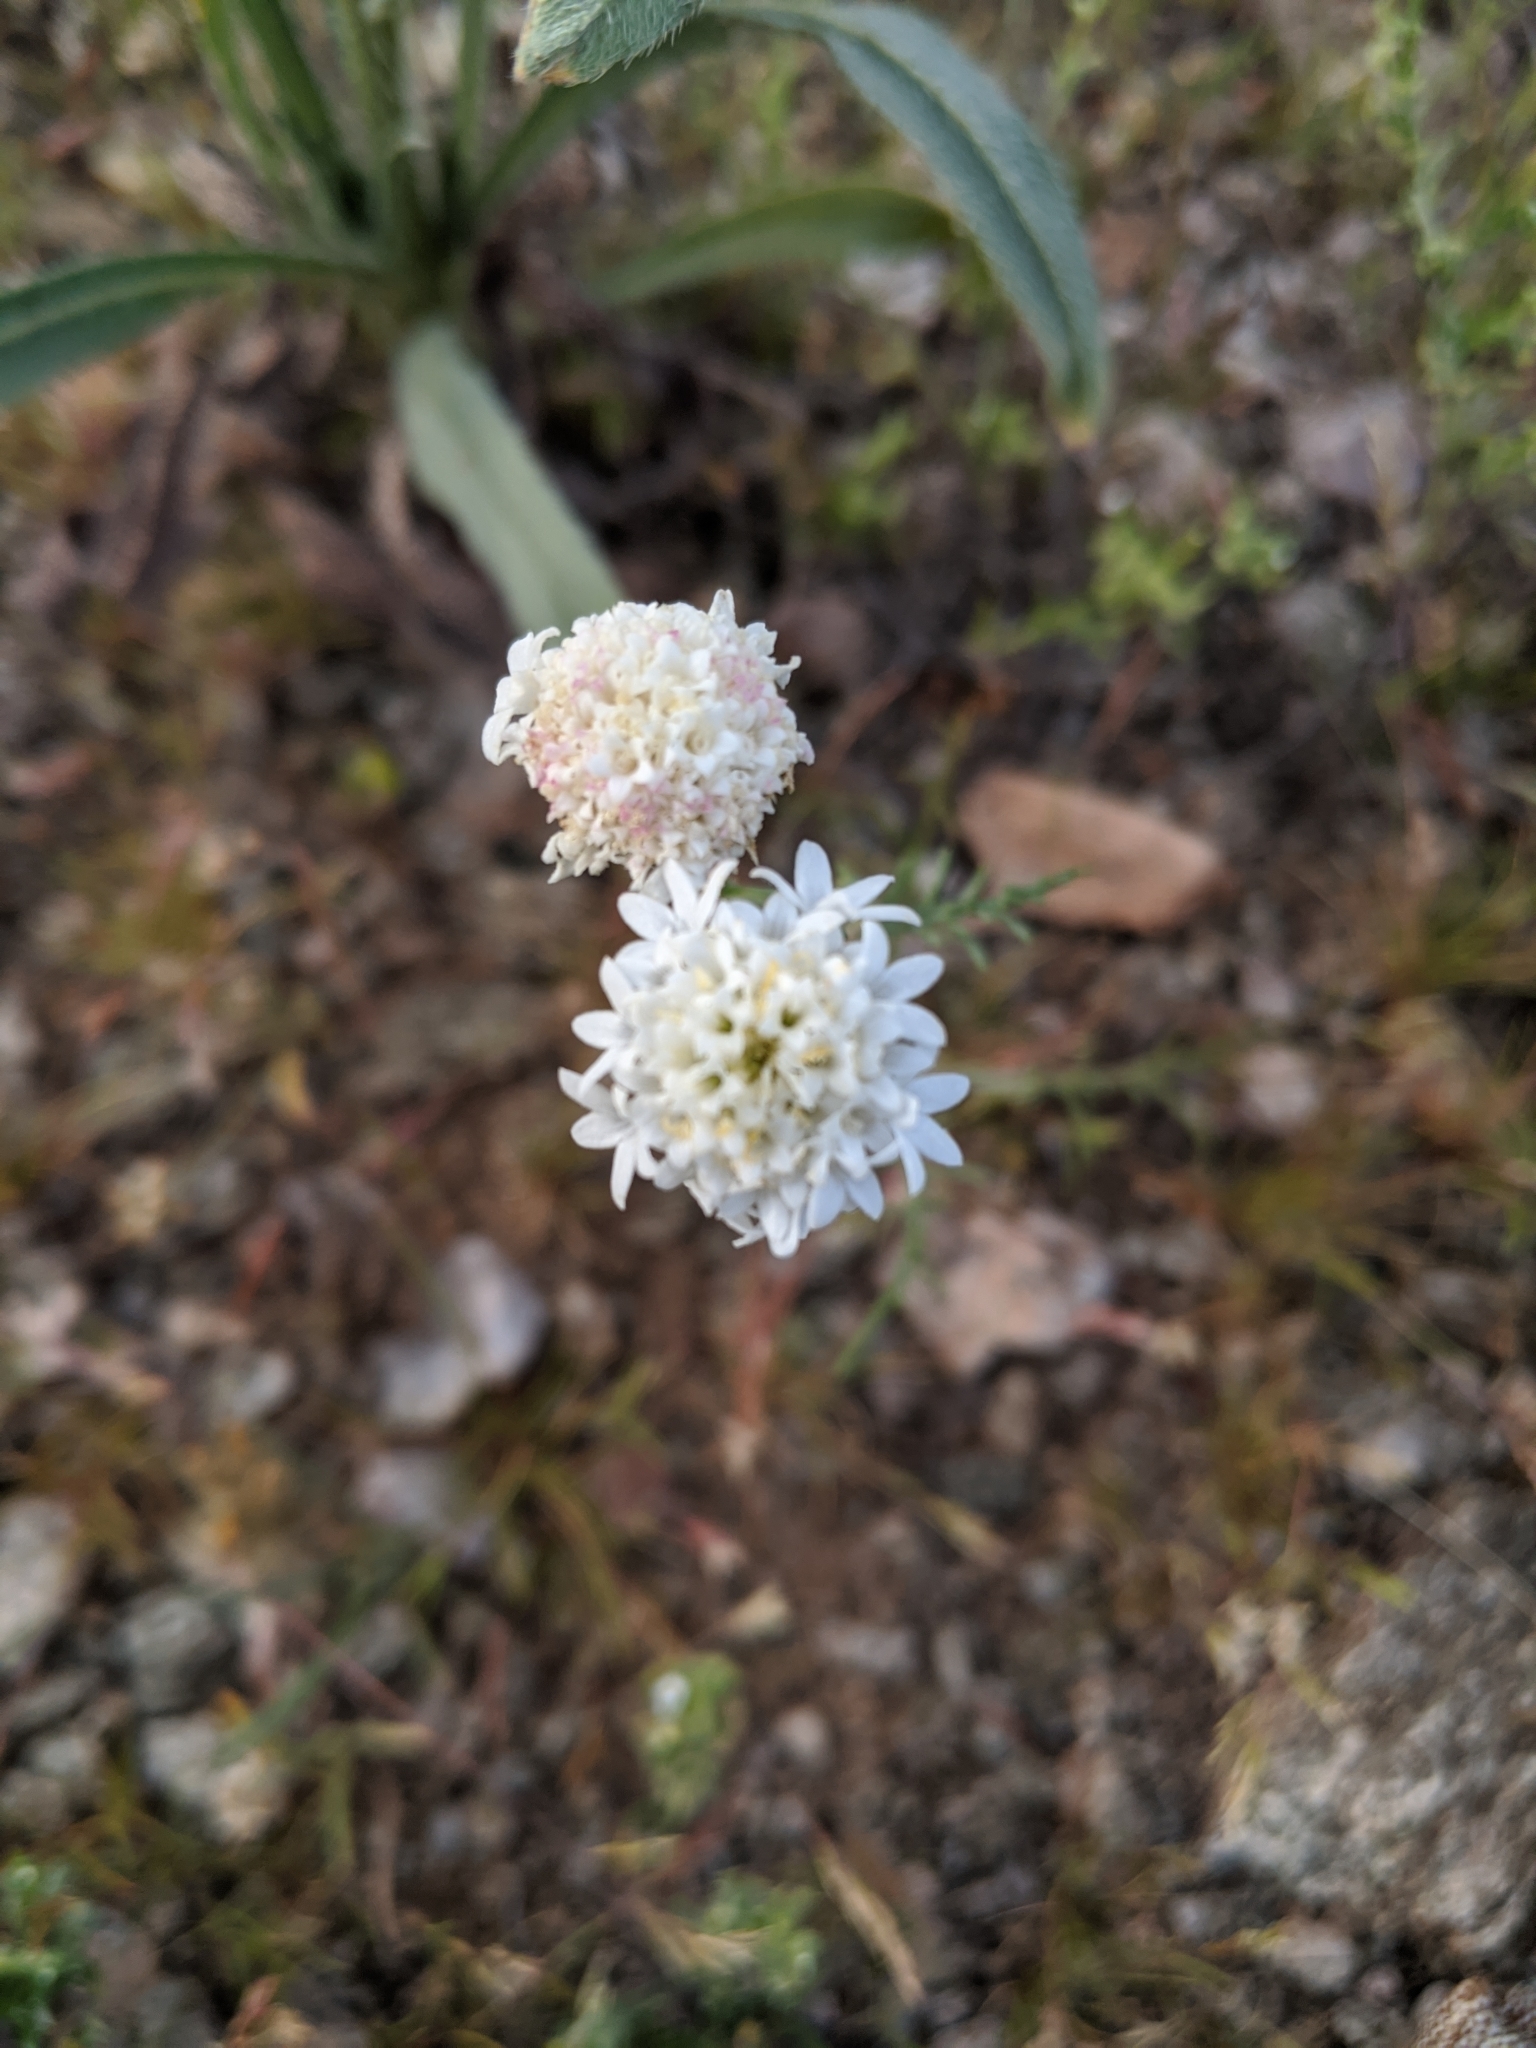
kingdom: Plantae
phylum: Tracheophyta
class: Magnoliopsida
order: Asterales
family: Asteraceae
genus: Chaenactis
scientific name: Chaenactis stevioides
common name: Desert pincushion
